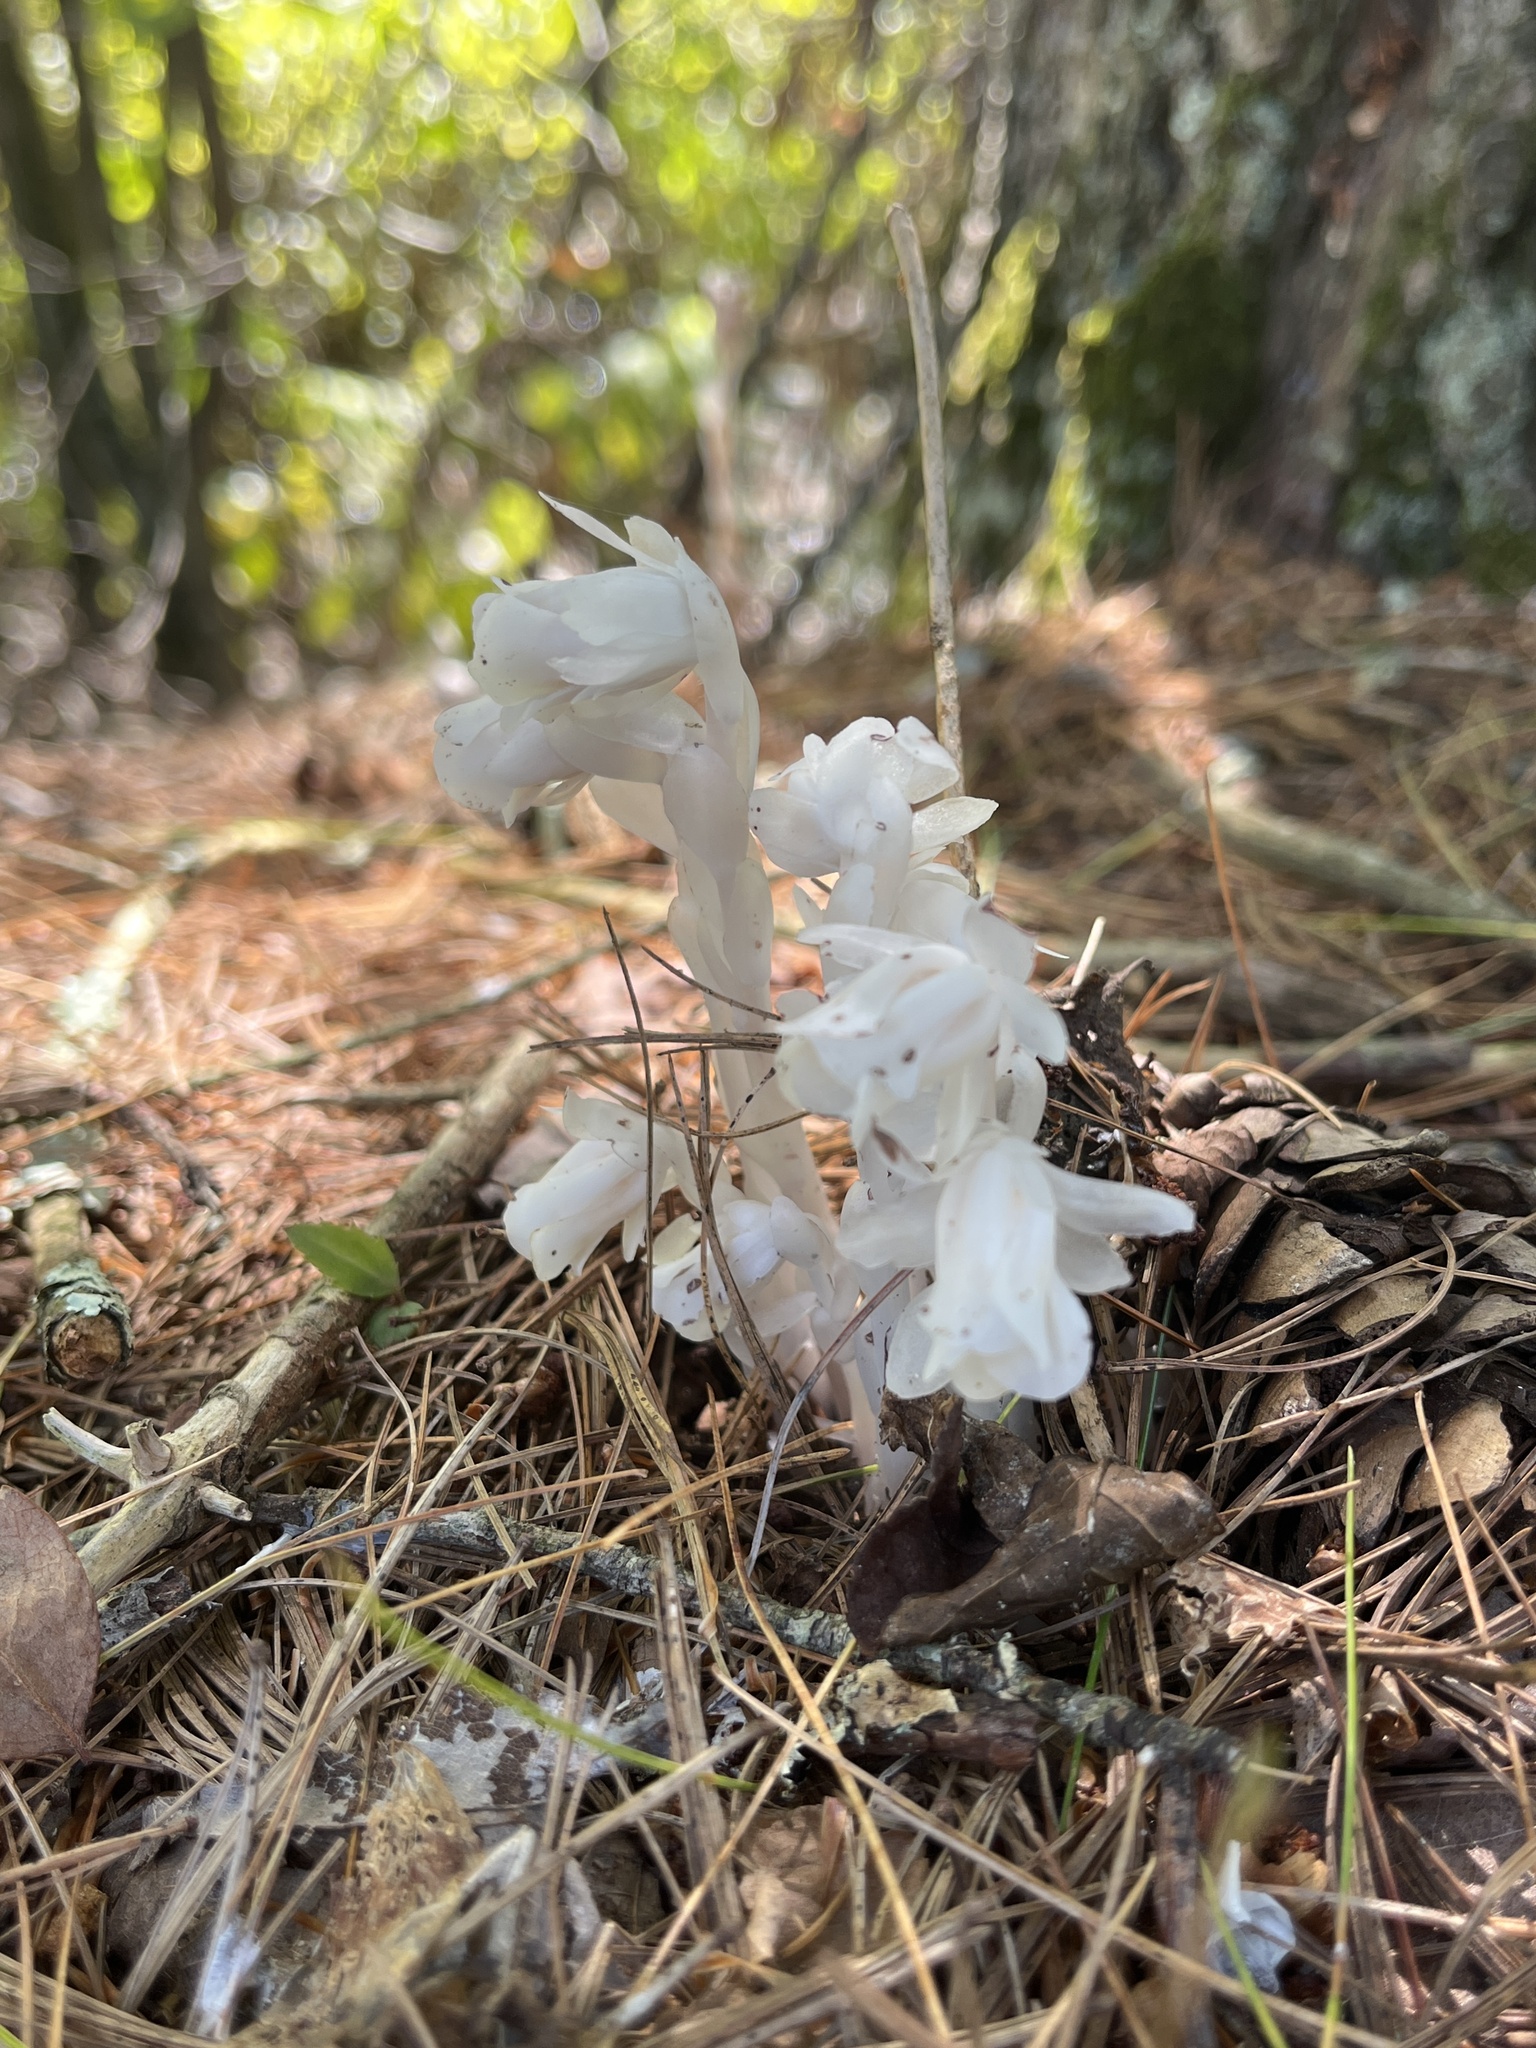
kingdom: Plantae
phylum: Tracheophyta
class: Magnoliopsida
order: Ericales
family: Ericaceae
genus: Monotropa
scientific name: Monotropa uniflora
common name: Convulsion root
